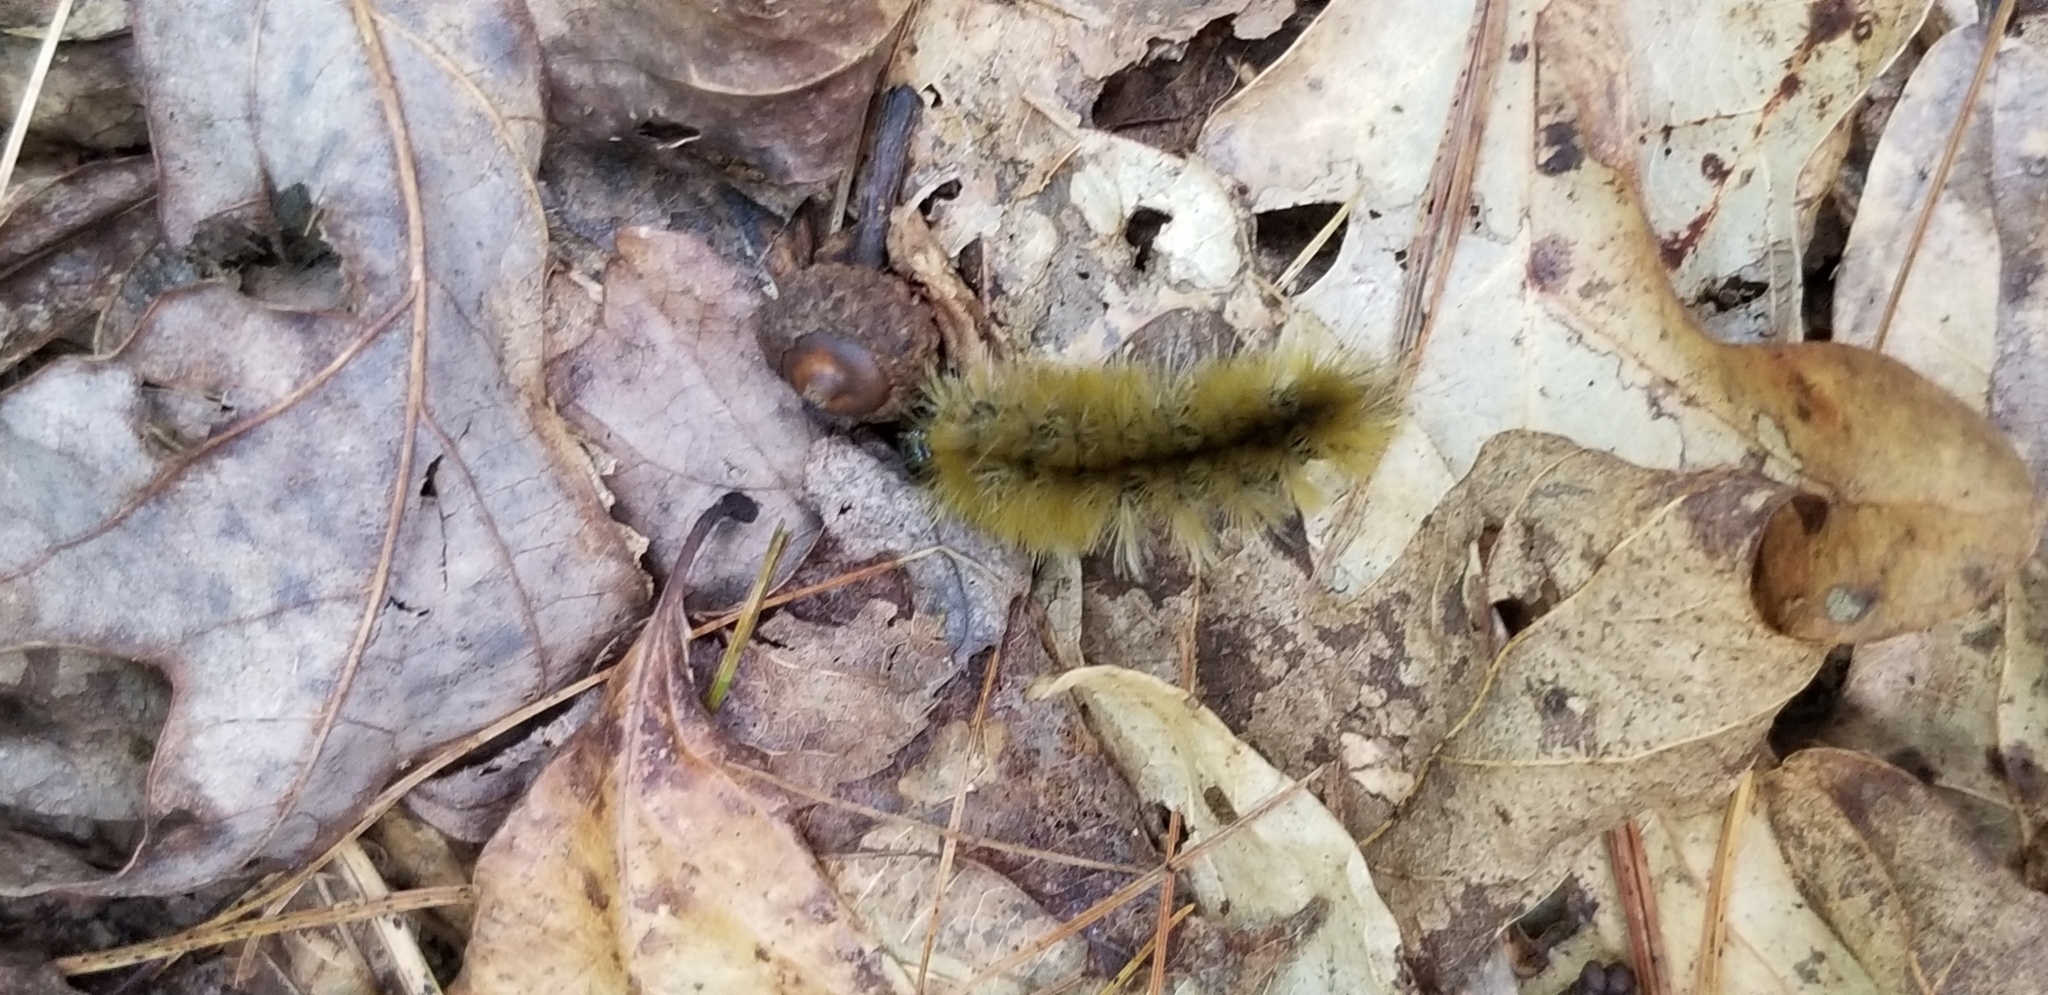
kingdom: Animalia
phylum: Arthropoda
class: Insecta
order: Lepidoptera
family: Erebidae
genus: Halysidota
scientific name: Halysidota tessellaris
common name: Banded tussock moth
